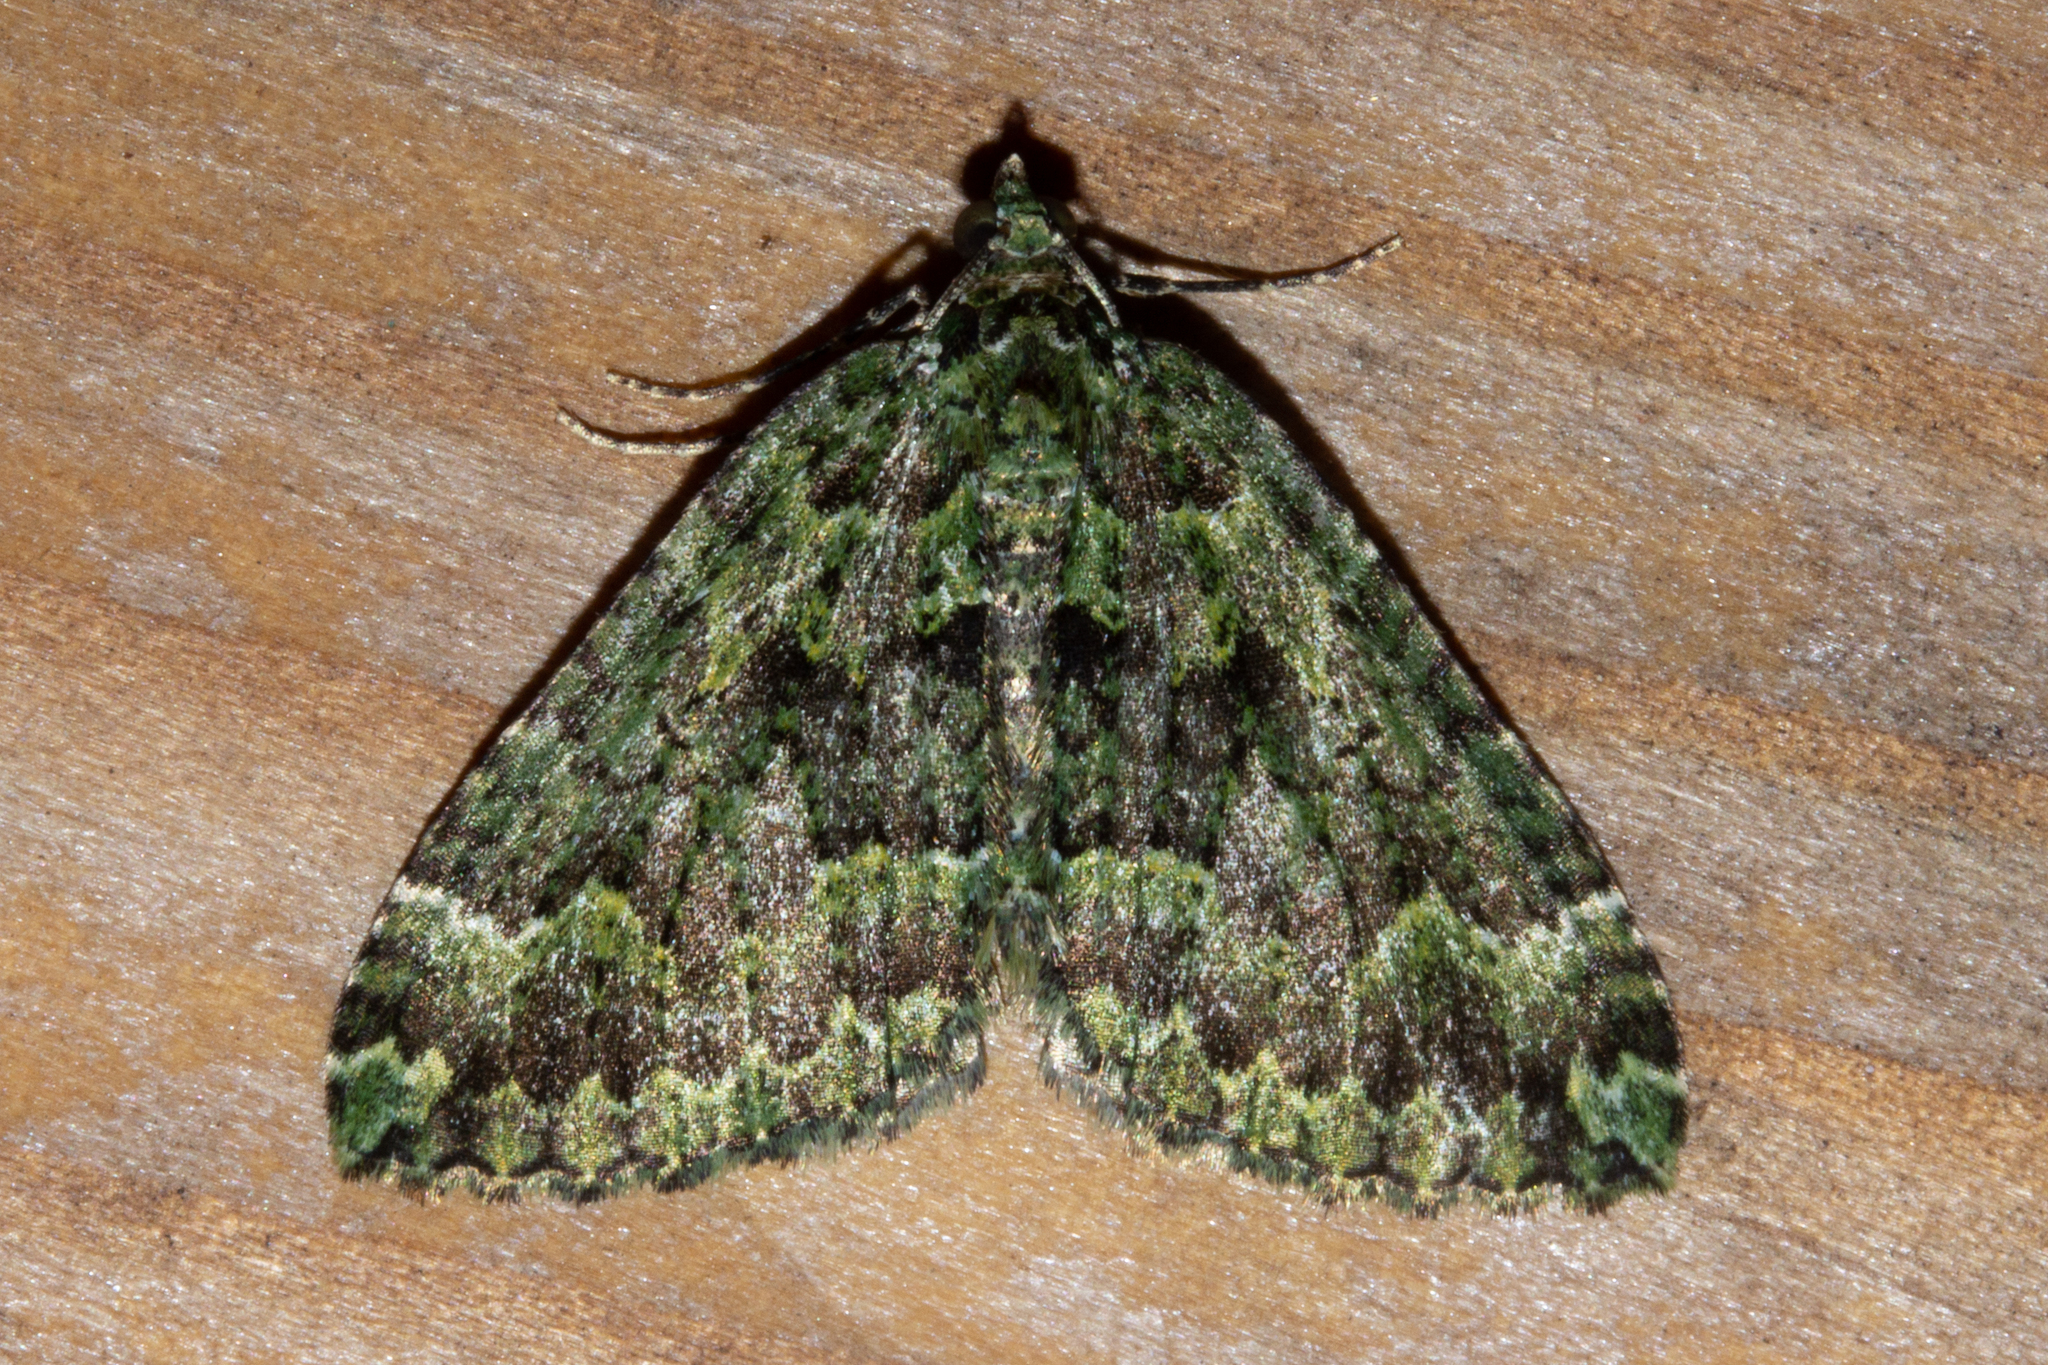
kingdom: Animalia
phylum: Arthropoda
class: Insecta
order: Lepidoptera
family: Geometridae
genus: Austrocidaria
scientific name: Austrocidaria callichlora
